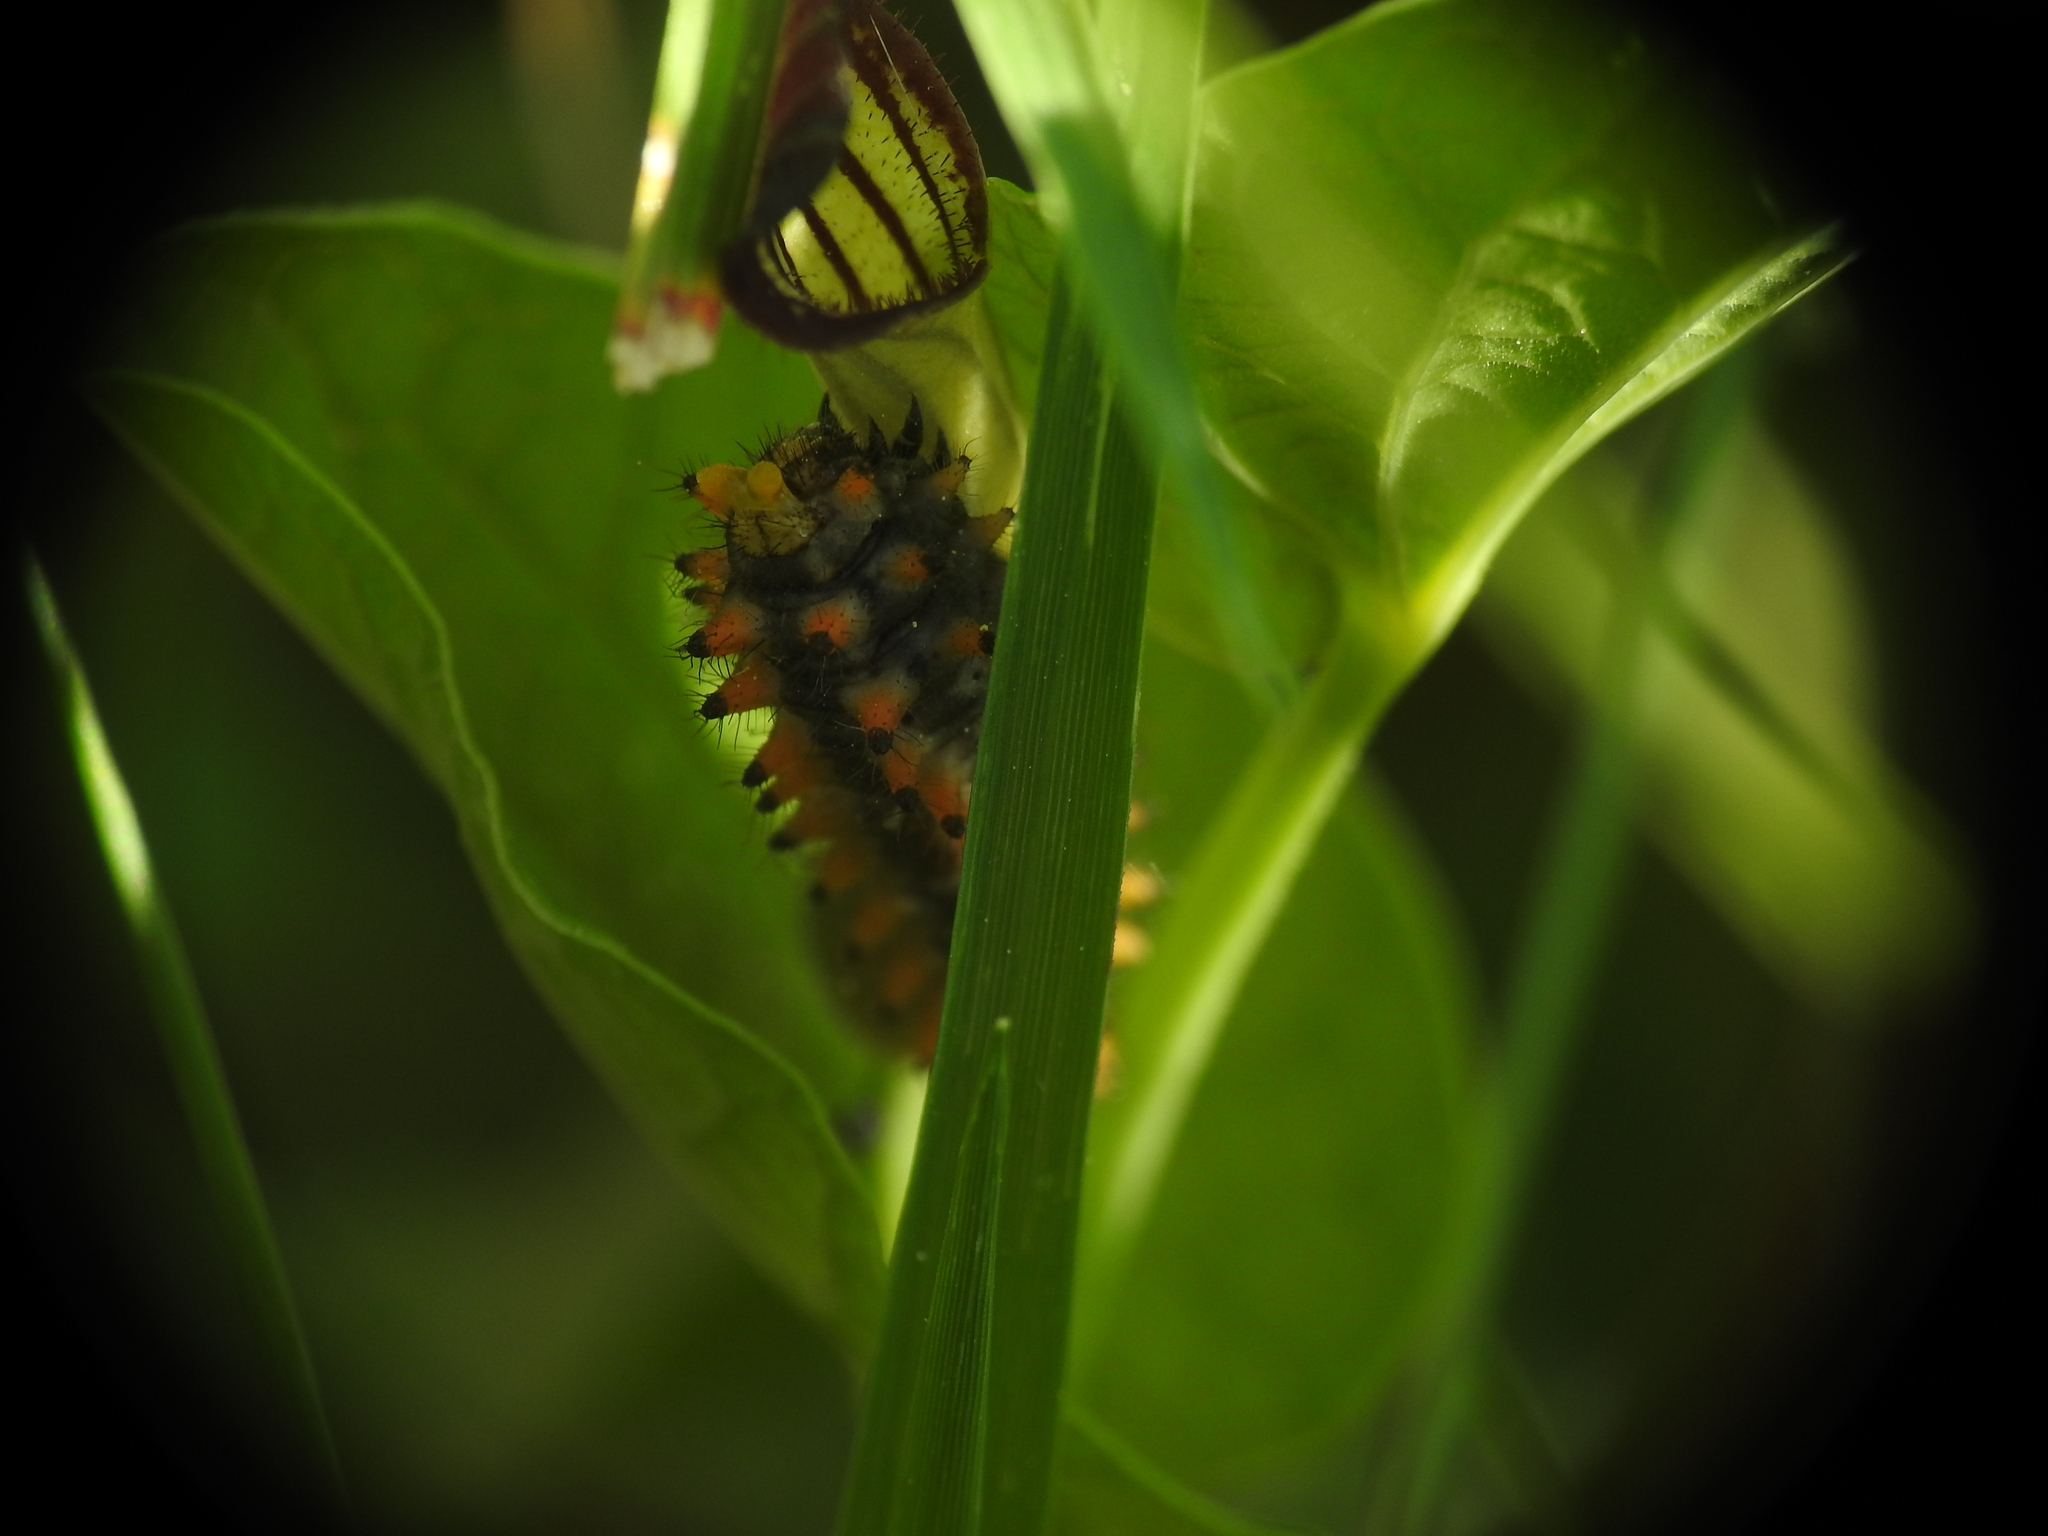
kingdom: Animalia
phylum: Arthropoda
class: Insecta
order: Lepidoptera
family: Papilionidae
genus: Zerynthia
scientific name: Zerynthia polyxena
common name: Southern festoon
